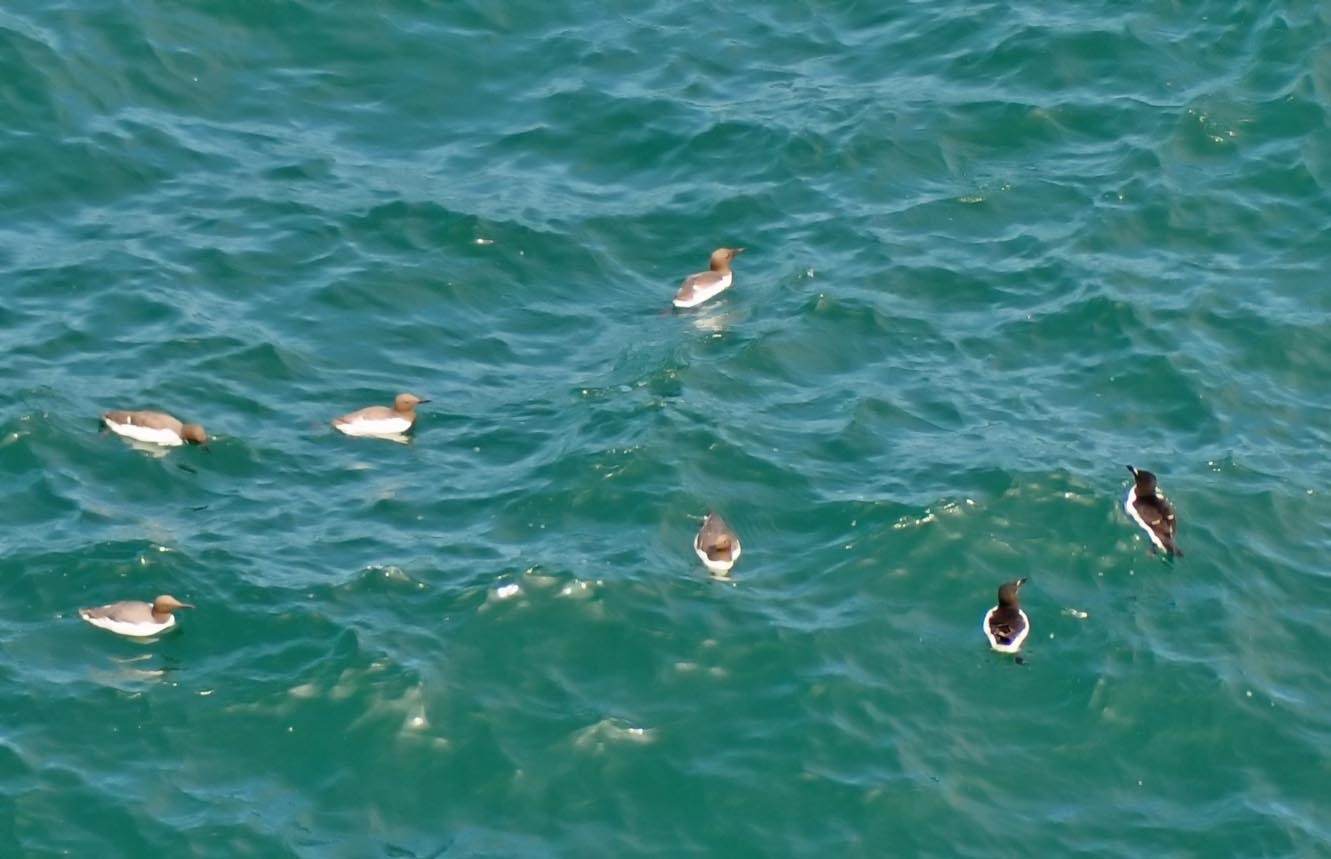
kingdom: Animalia
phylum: Chordata
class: Aves
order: Charadriiformes
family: Alcidae
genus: Uria
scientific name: Uria aalge
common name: Common murre
